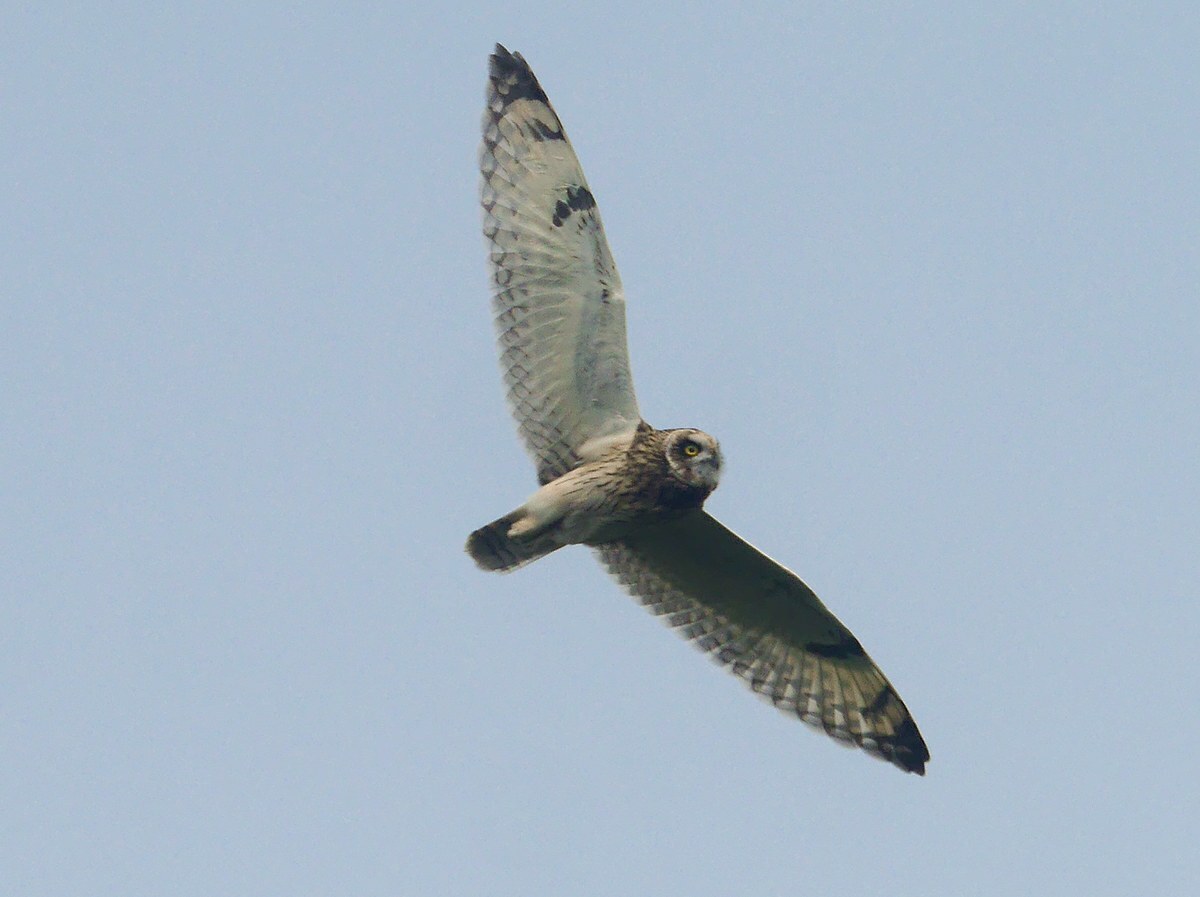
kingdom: Animalia
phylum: Chordata
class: Aves
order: Strigiformes
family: Strigidae
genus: Asio
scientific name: Asio flammeus
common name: Short-eared owl
